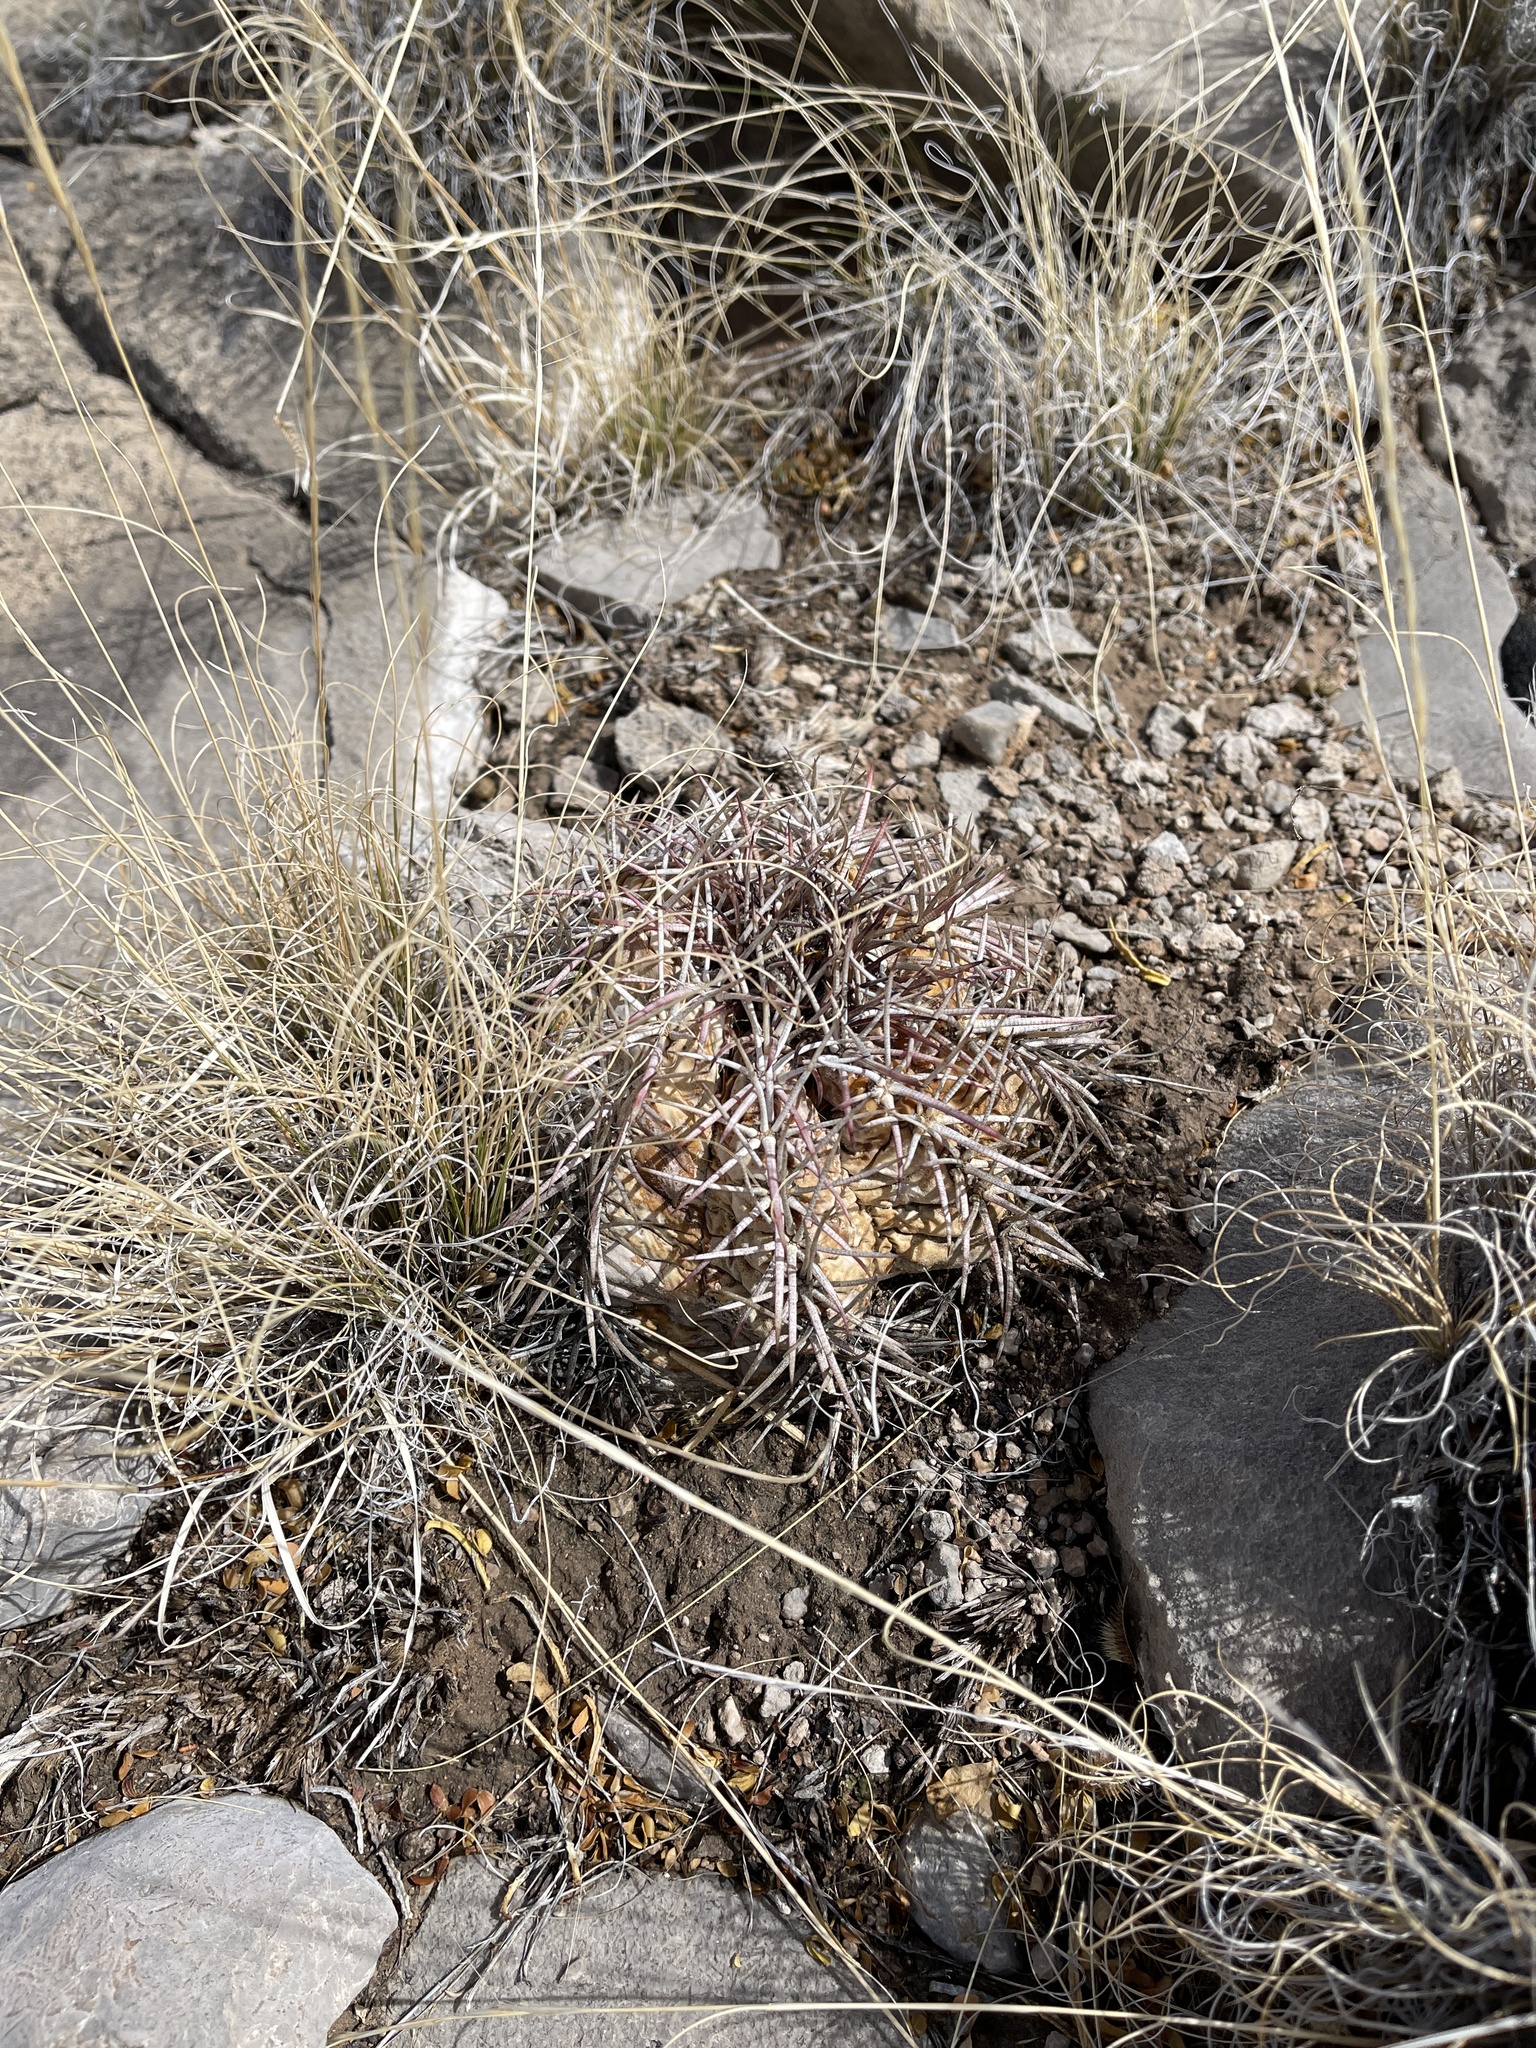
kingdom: Plantae
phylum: Tracheophyta
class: Magnoliopsida
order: Caryophyllales
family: Cactaceae
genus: Echinocactus
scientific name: Echinocactus horizonthalonius
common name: Devilshead
